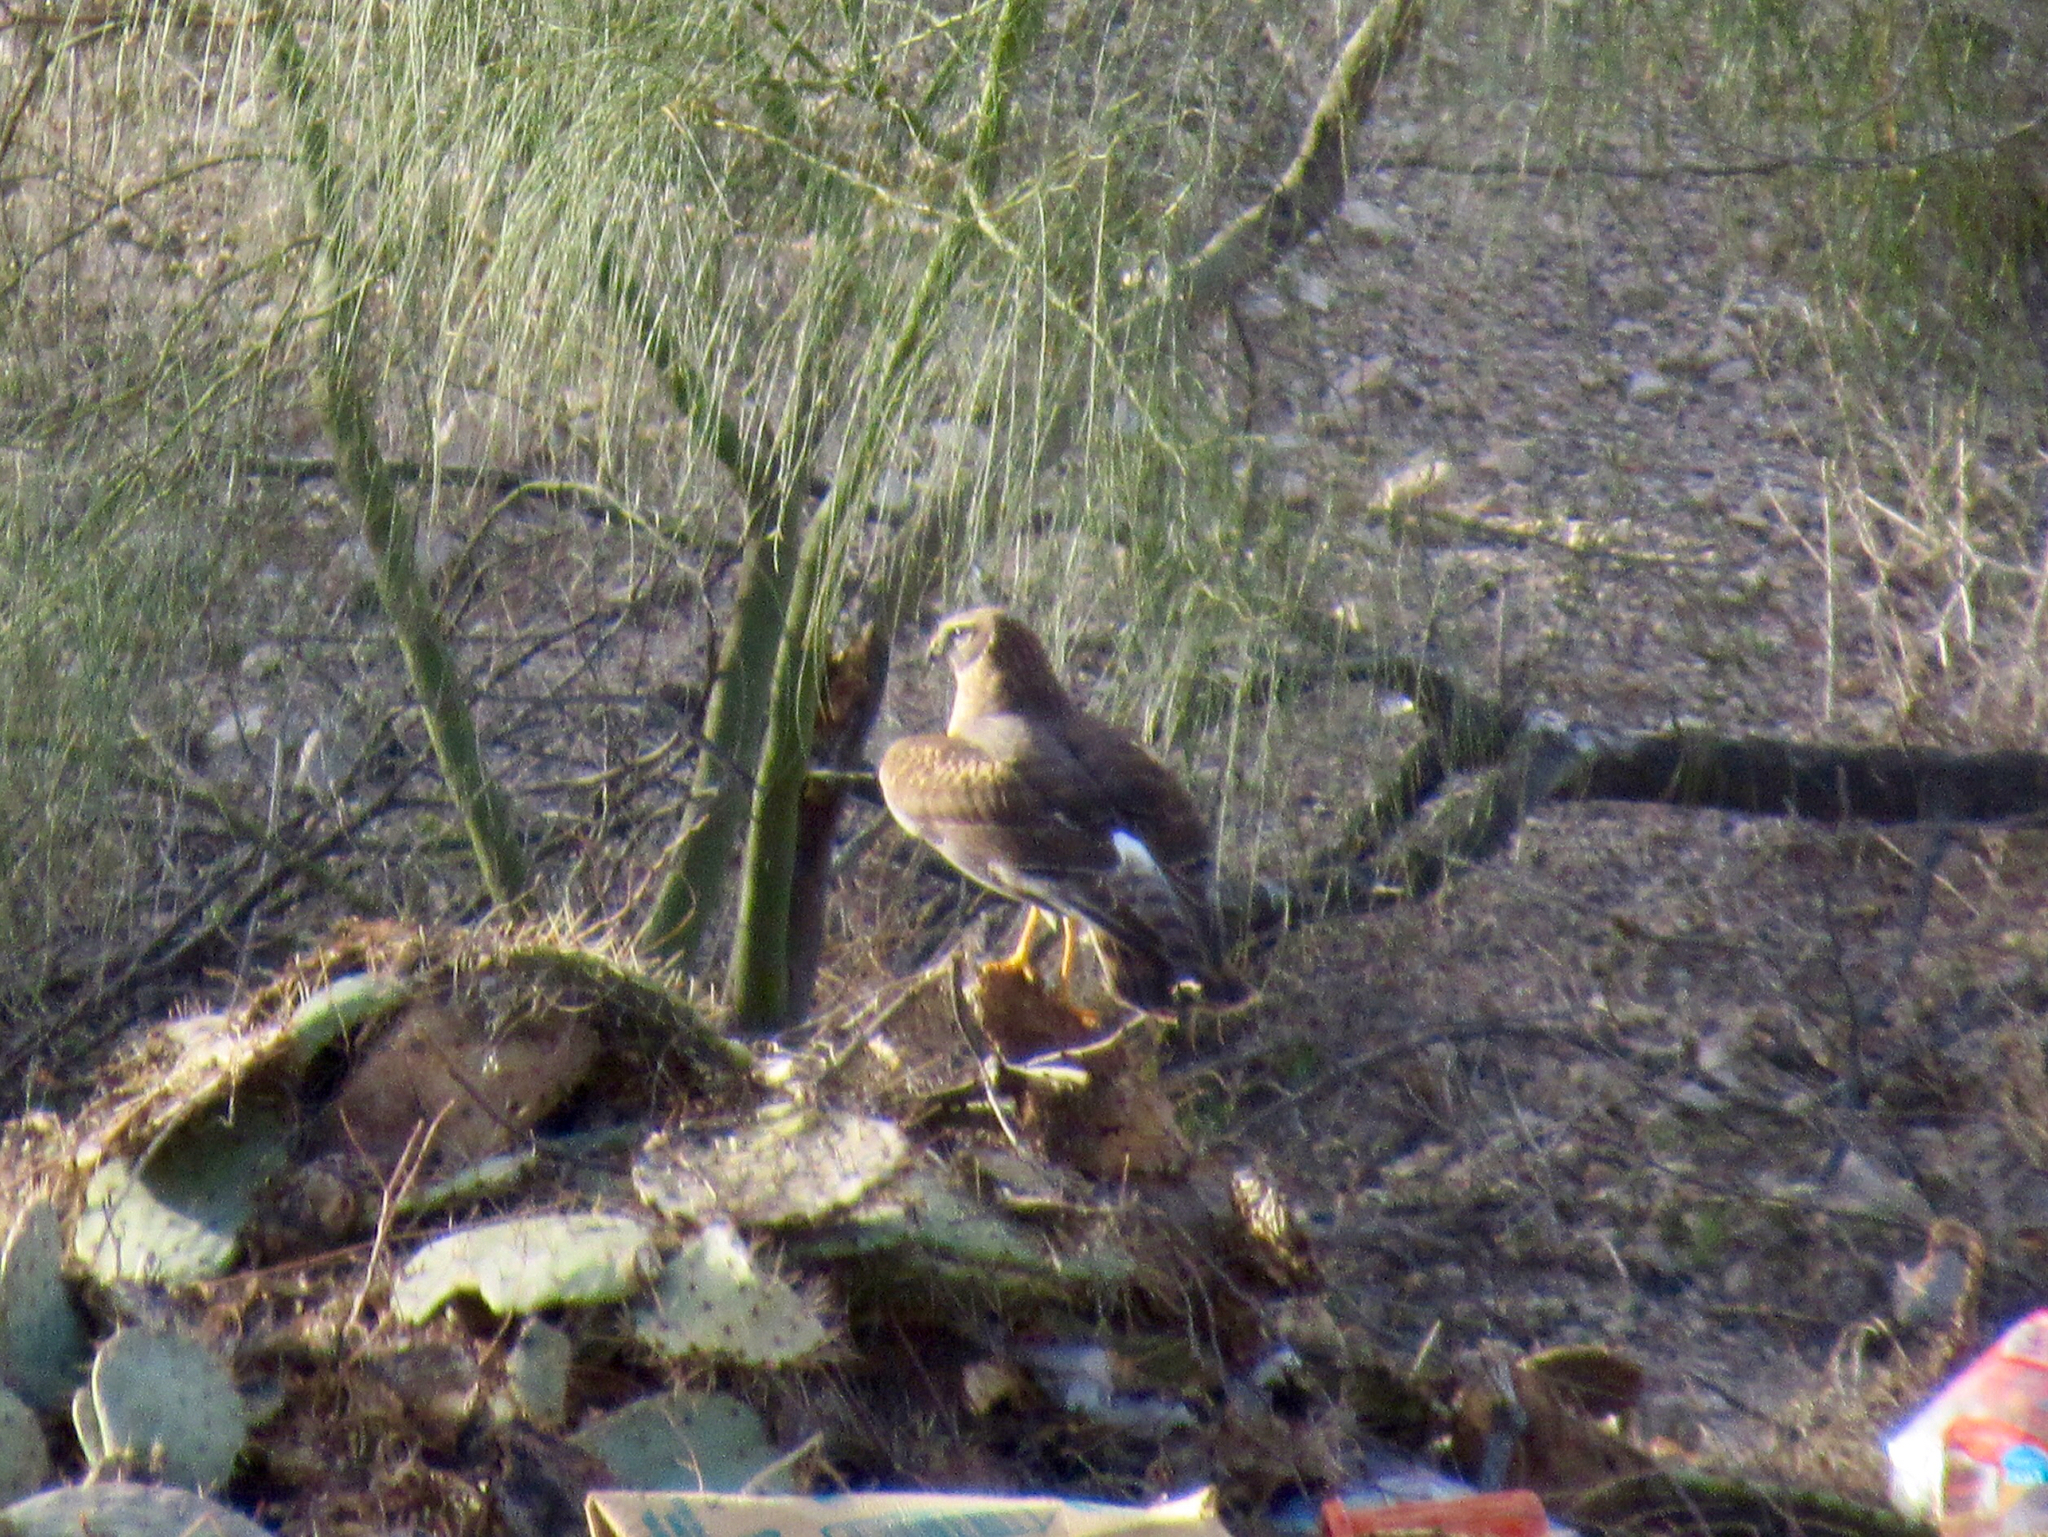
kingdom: Animalia
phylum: Chordata
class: Aves
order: Accipitriformes
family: Accipitridae
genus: Circus
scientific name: Circus cyaneus
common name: Hen harrier
